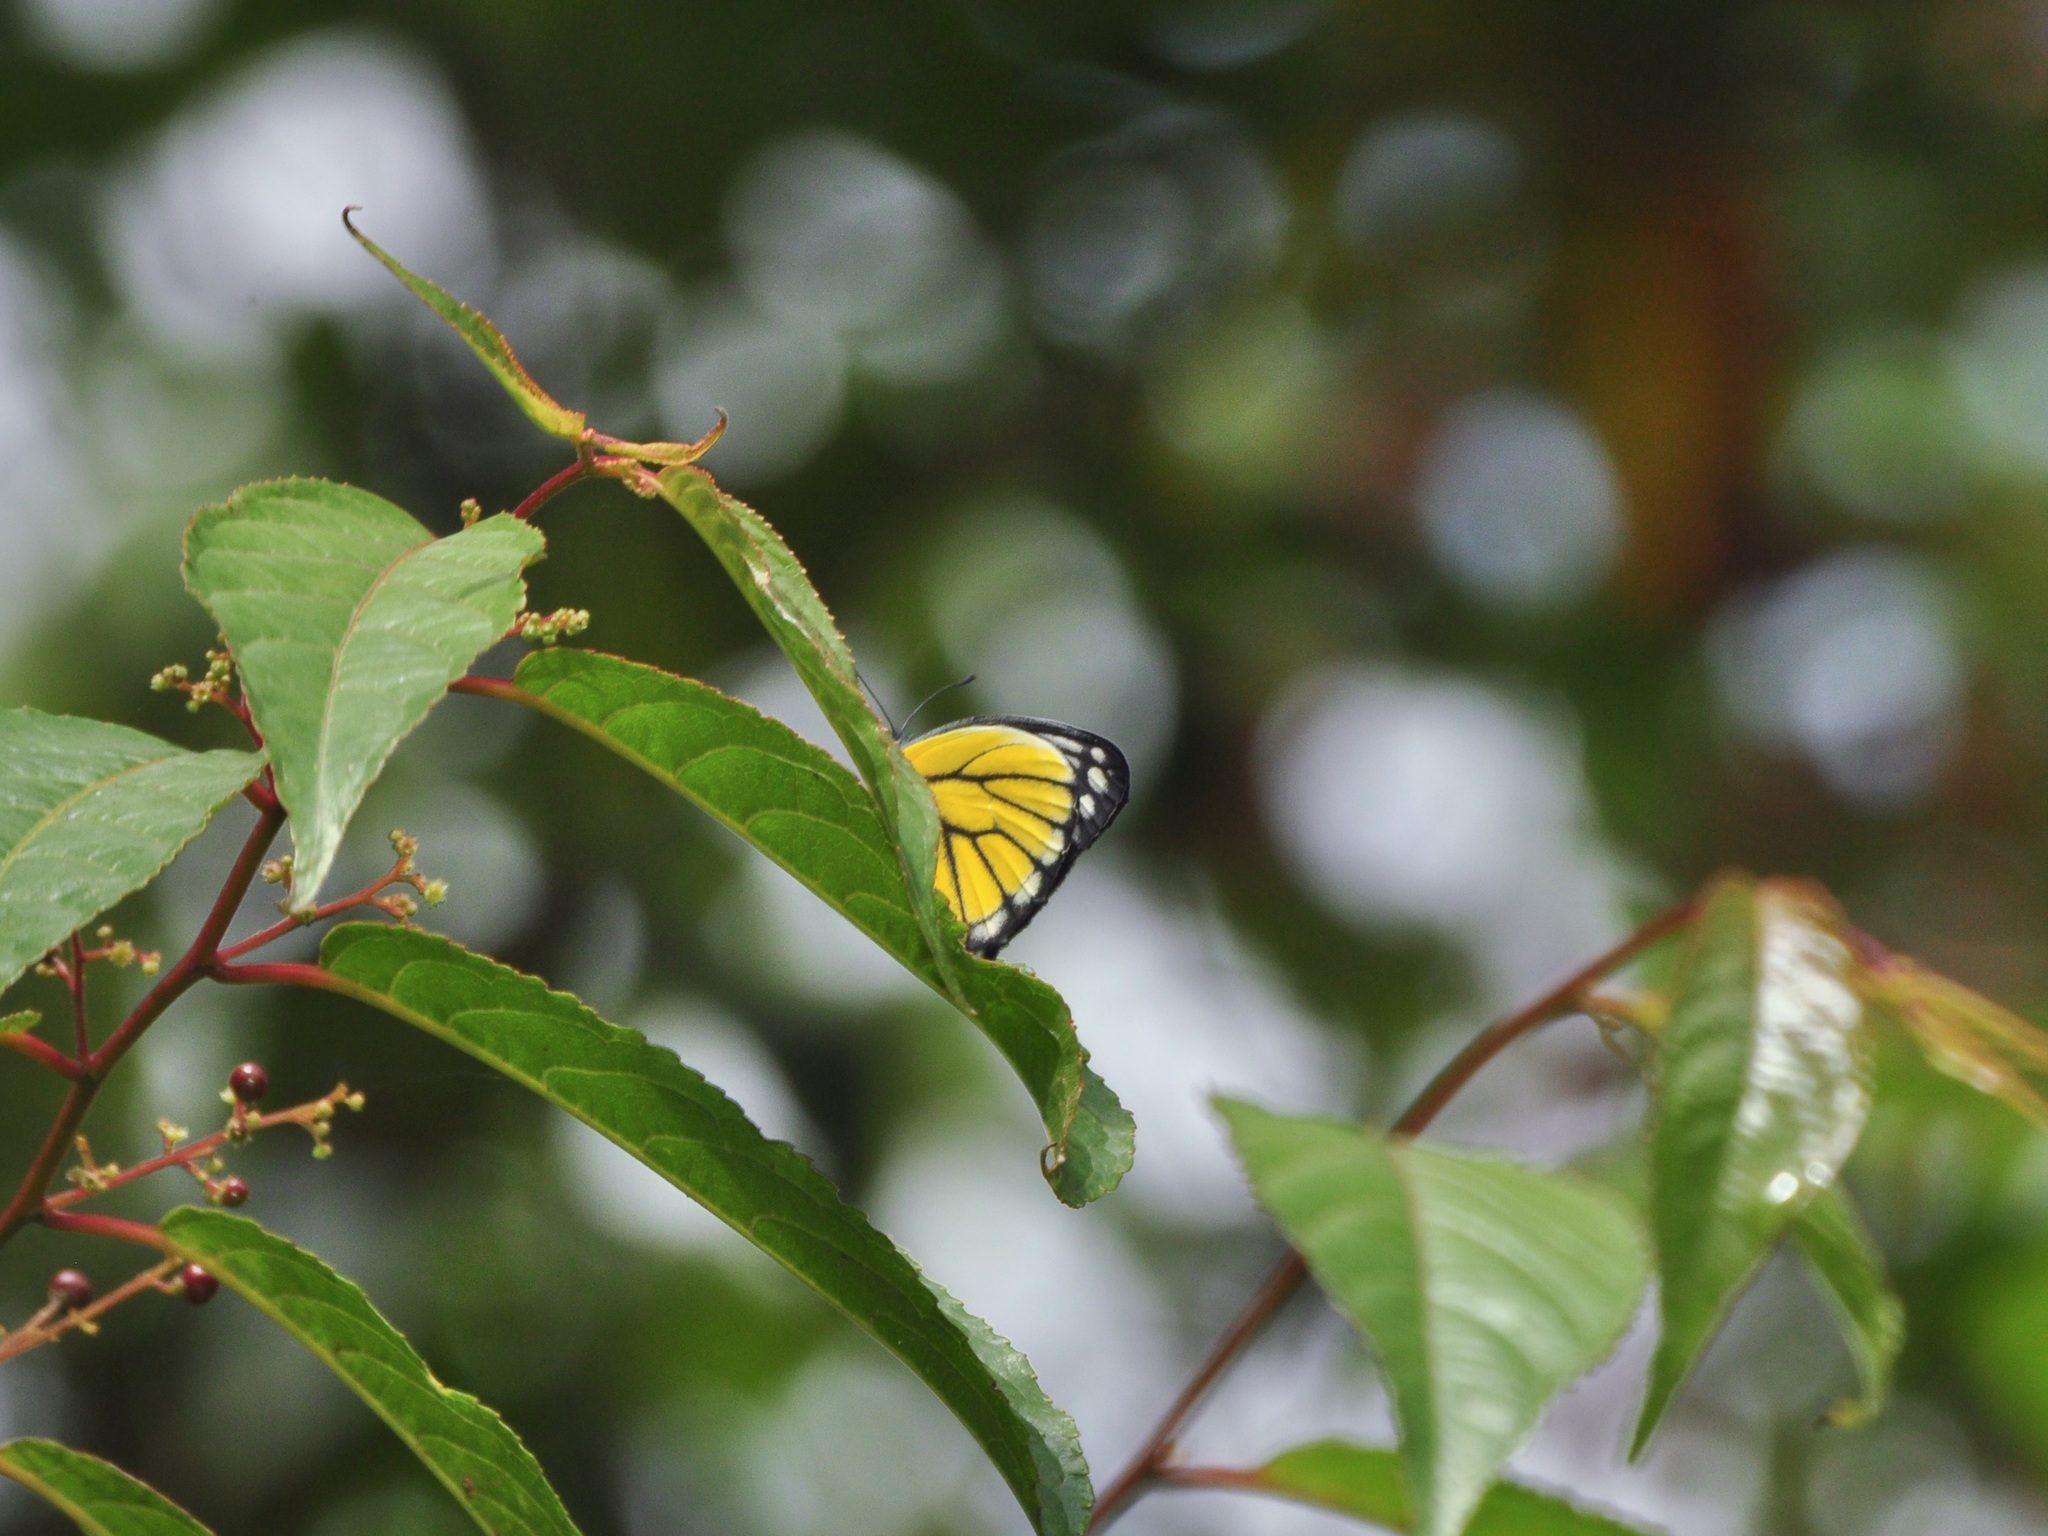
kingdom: Animalia
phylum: Arthropoda
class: Insecta
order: Lepidoptera
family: Pieridae
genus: Delias
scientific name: Delias baracasa
